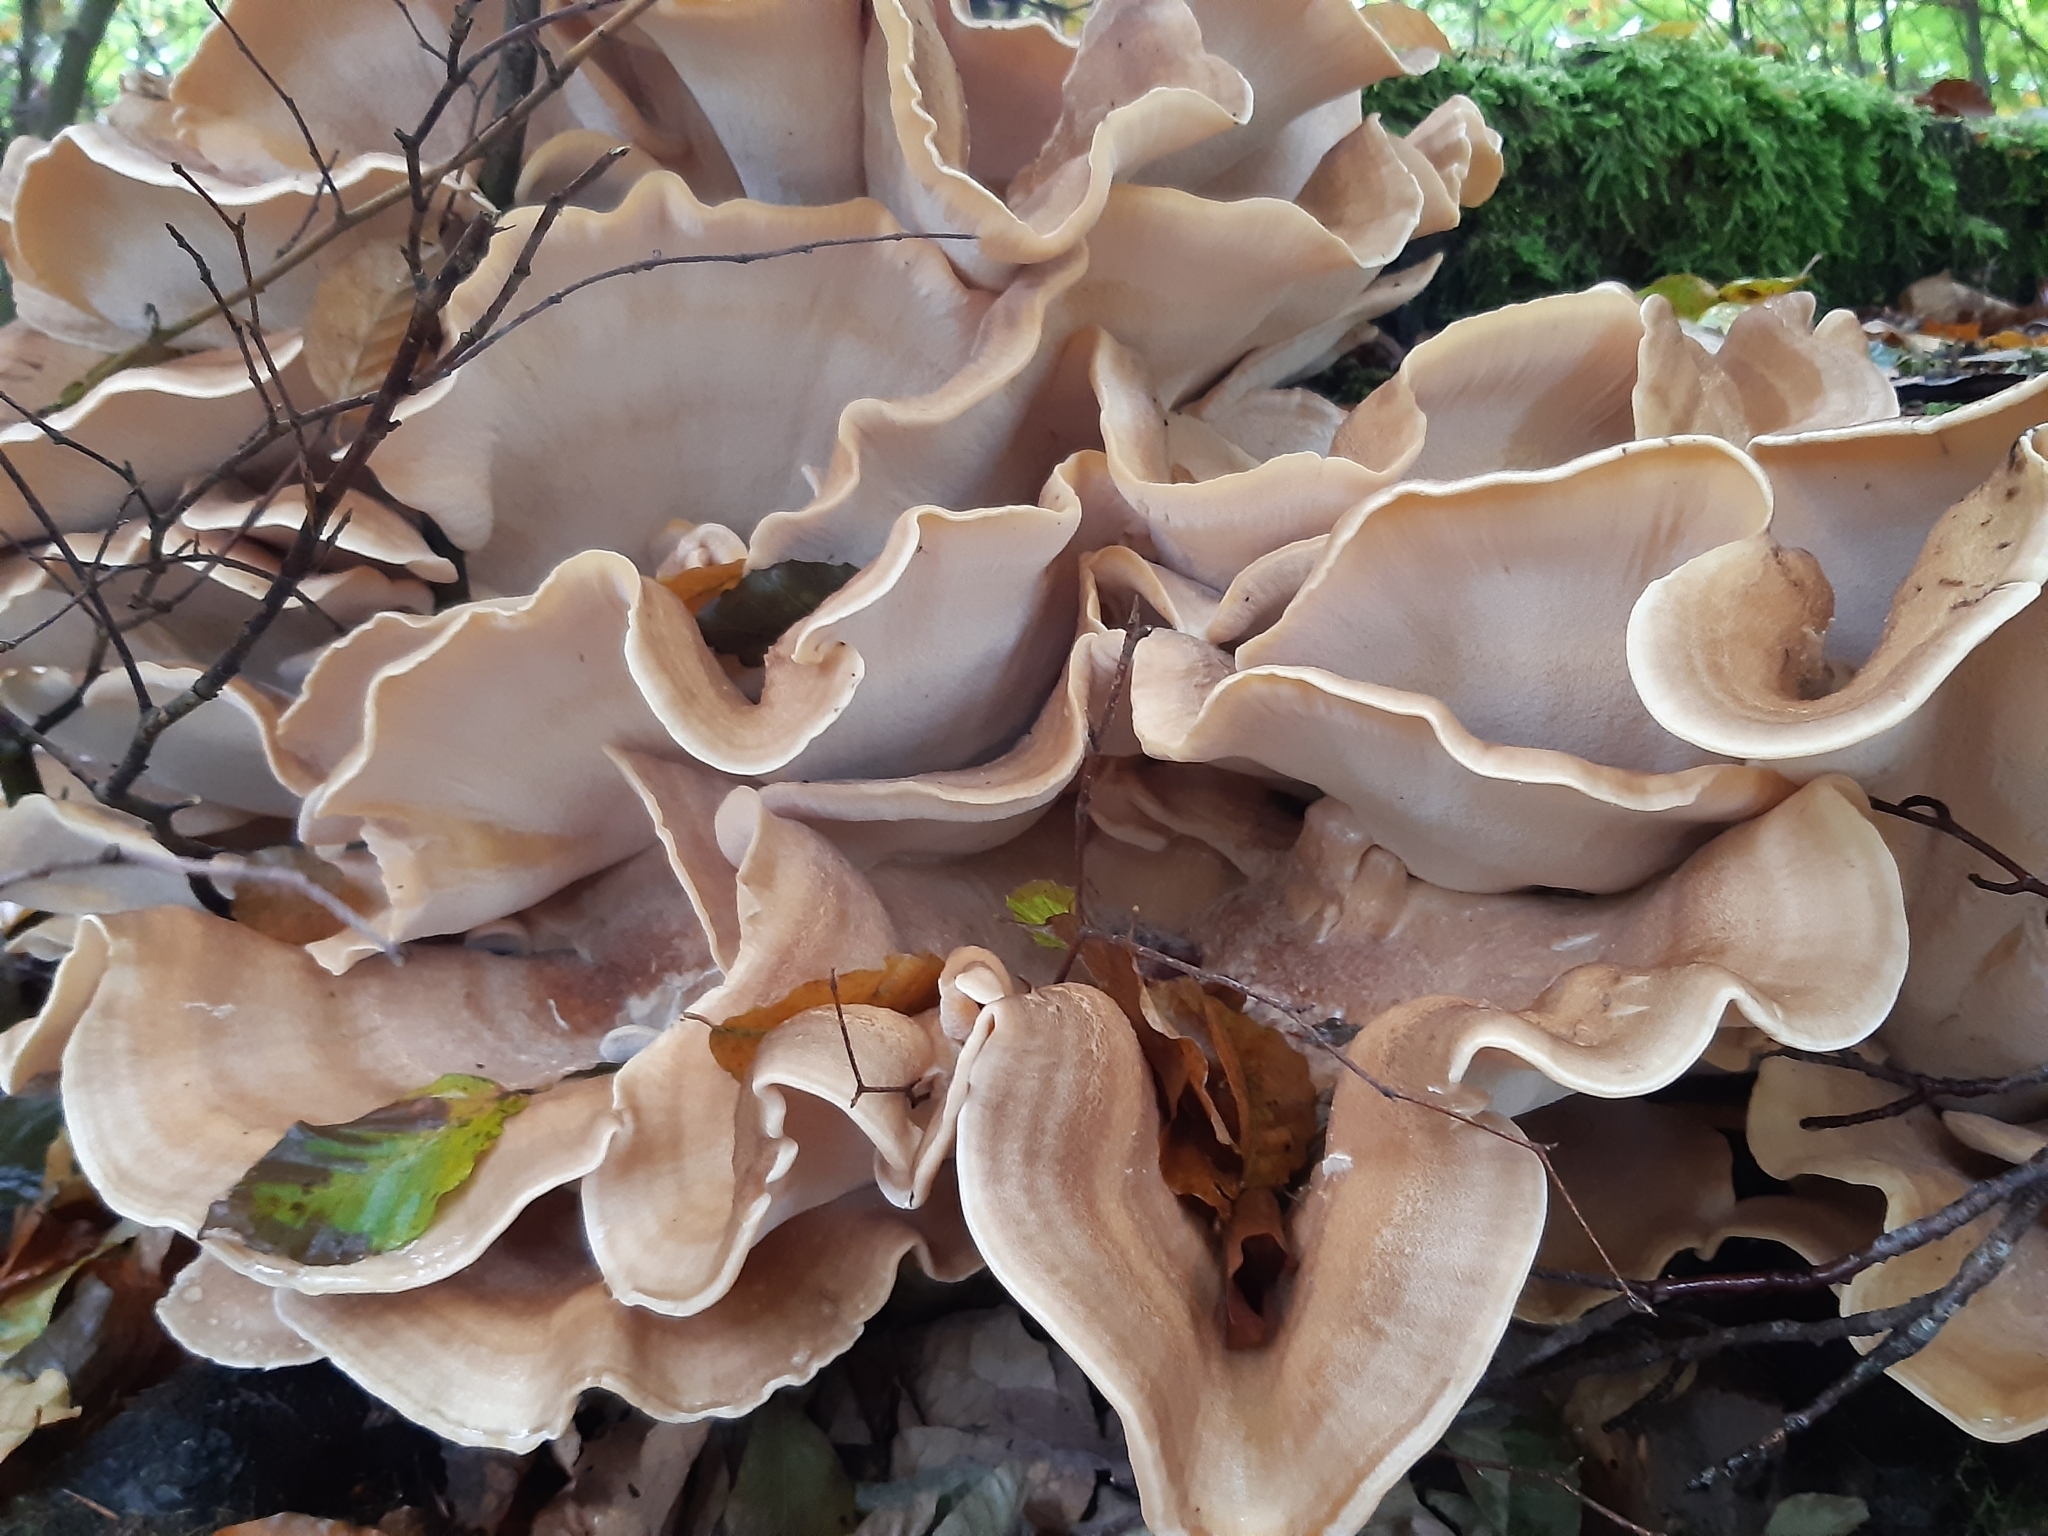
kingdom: Fungi
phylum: Basidiomycota
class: Agaricomycetes
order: Polyporales
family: Meripilaceae
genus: Meripilus
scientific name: Meripilus giganteus
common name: Giant polypore
